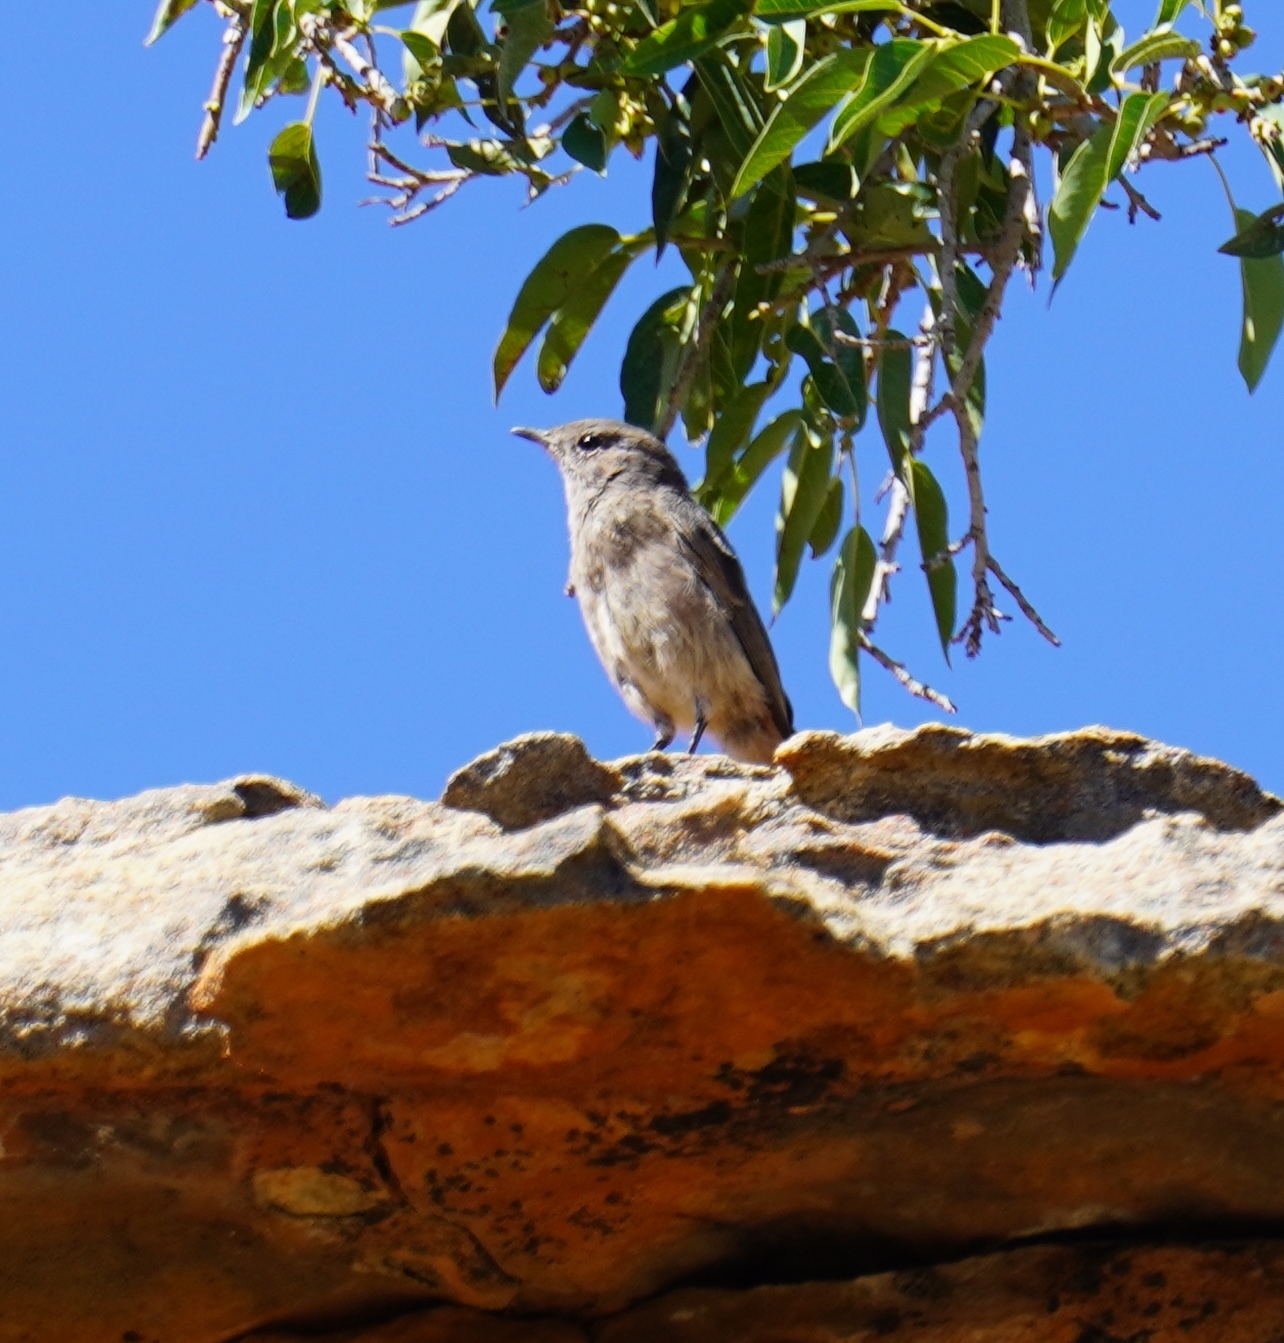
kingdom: Animalia
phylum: Chordata
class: Aves
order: Passeriformes
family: Muscicapidae
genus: Oenanthe
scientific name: Oenanthe familiaris
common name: Familiar chat
